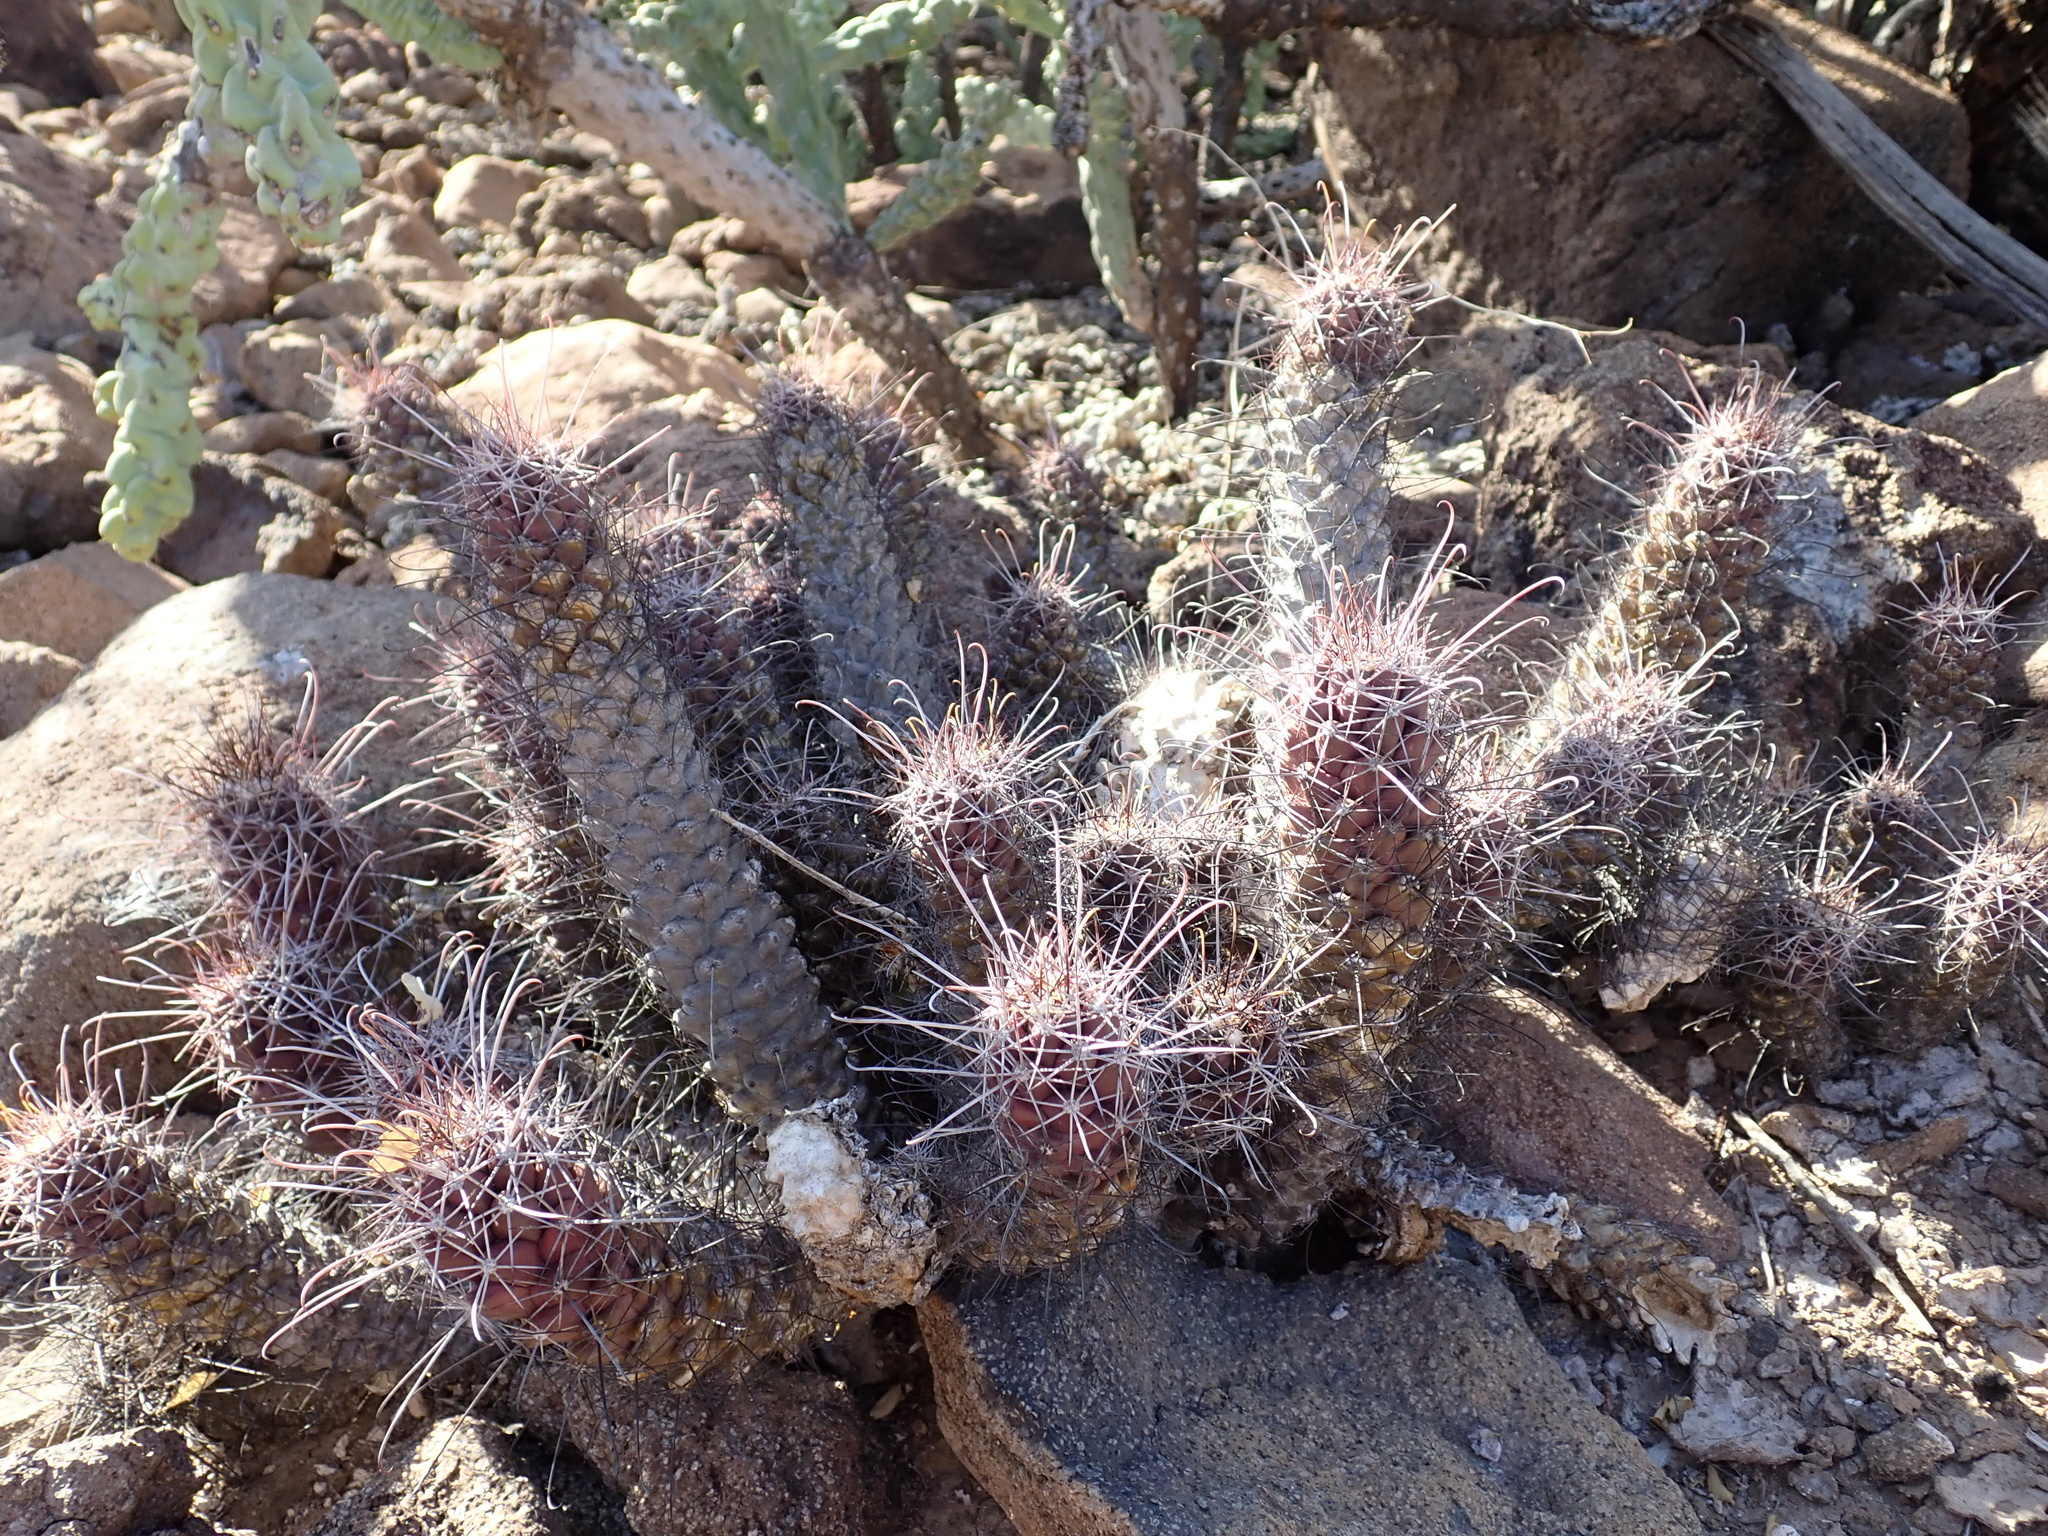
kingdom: Plantae
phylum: Tracheophyta
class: Magnoliopsida
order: Caryophyllales
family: Cactaceae
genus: Cochemiea
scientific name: Cochemiea poselgeri
